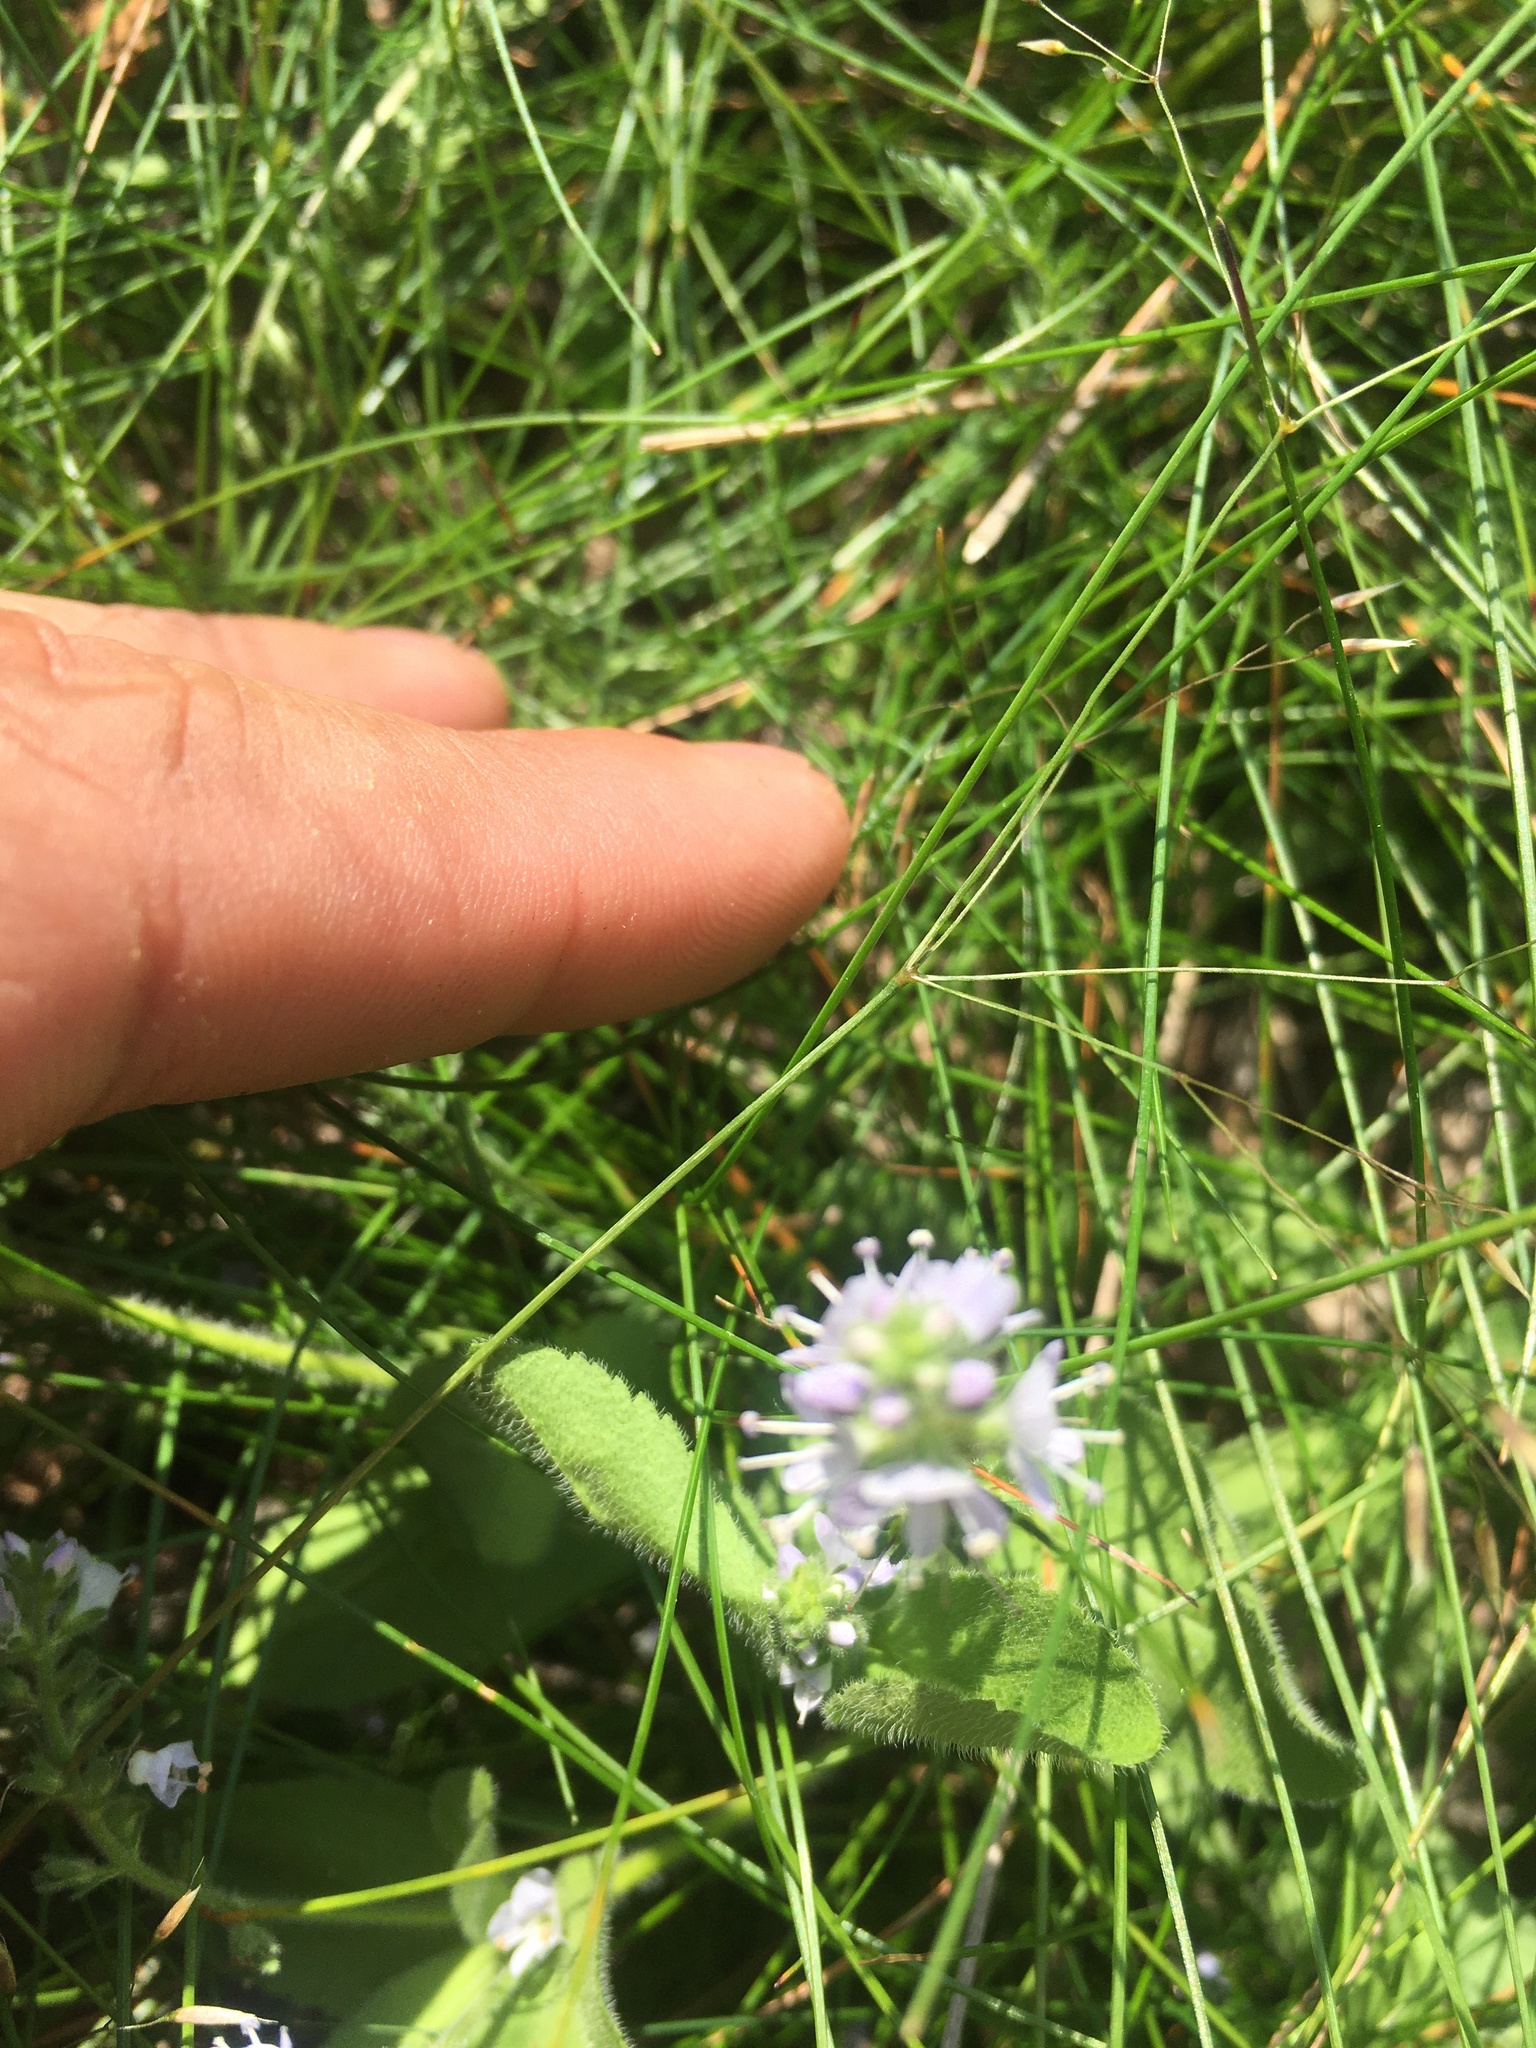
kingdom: Plantae
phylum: Tracheophyta
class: Magnoliopsida
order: Lamiales
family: Plantaginaceae
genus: Veronica
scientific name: Veronica officinalis
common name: Common speedwell
